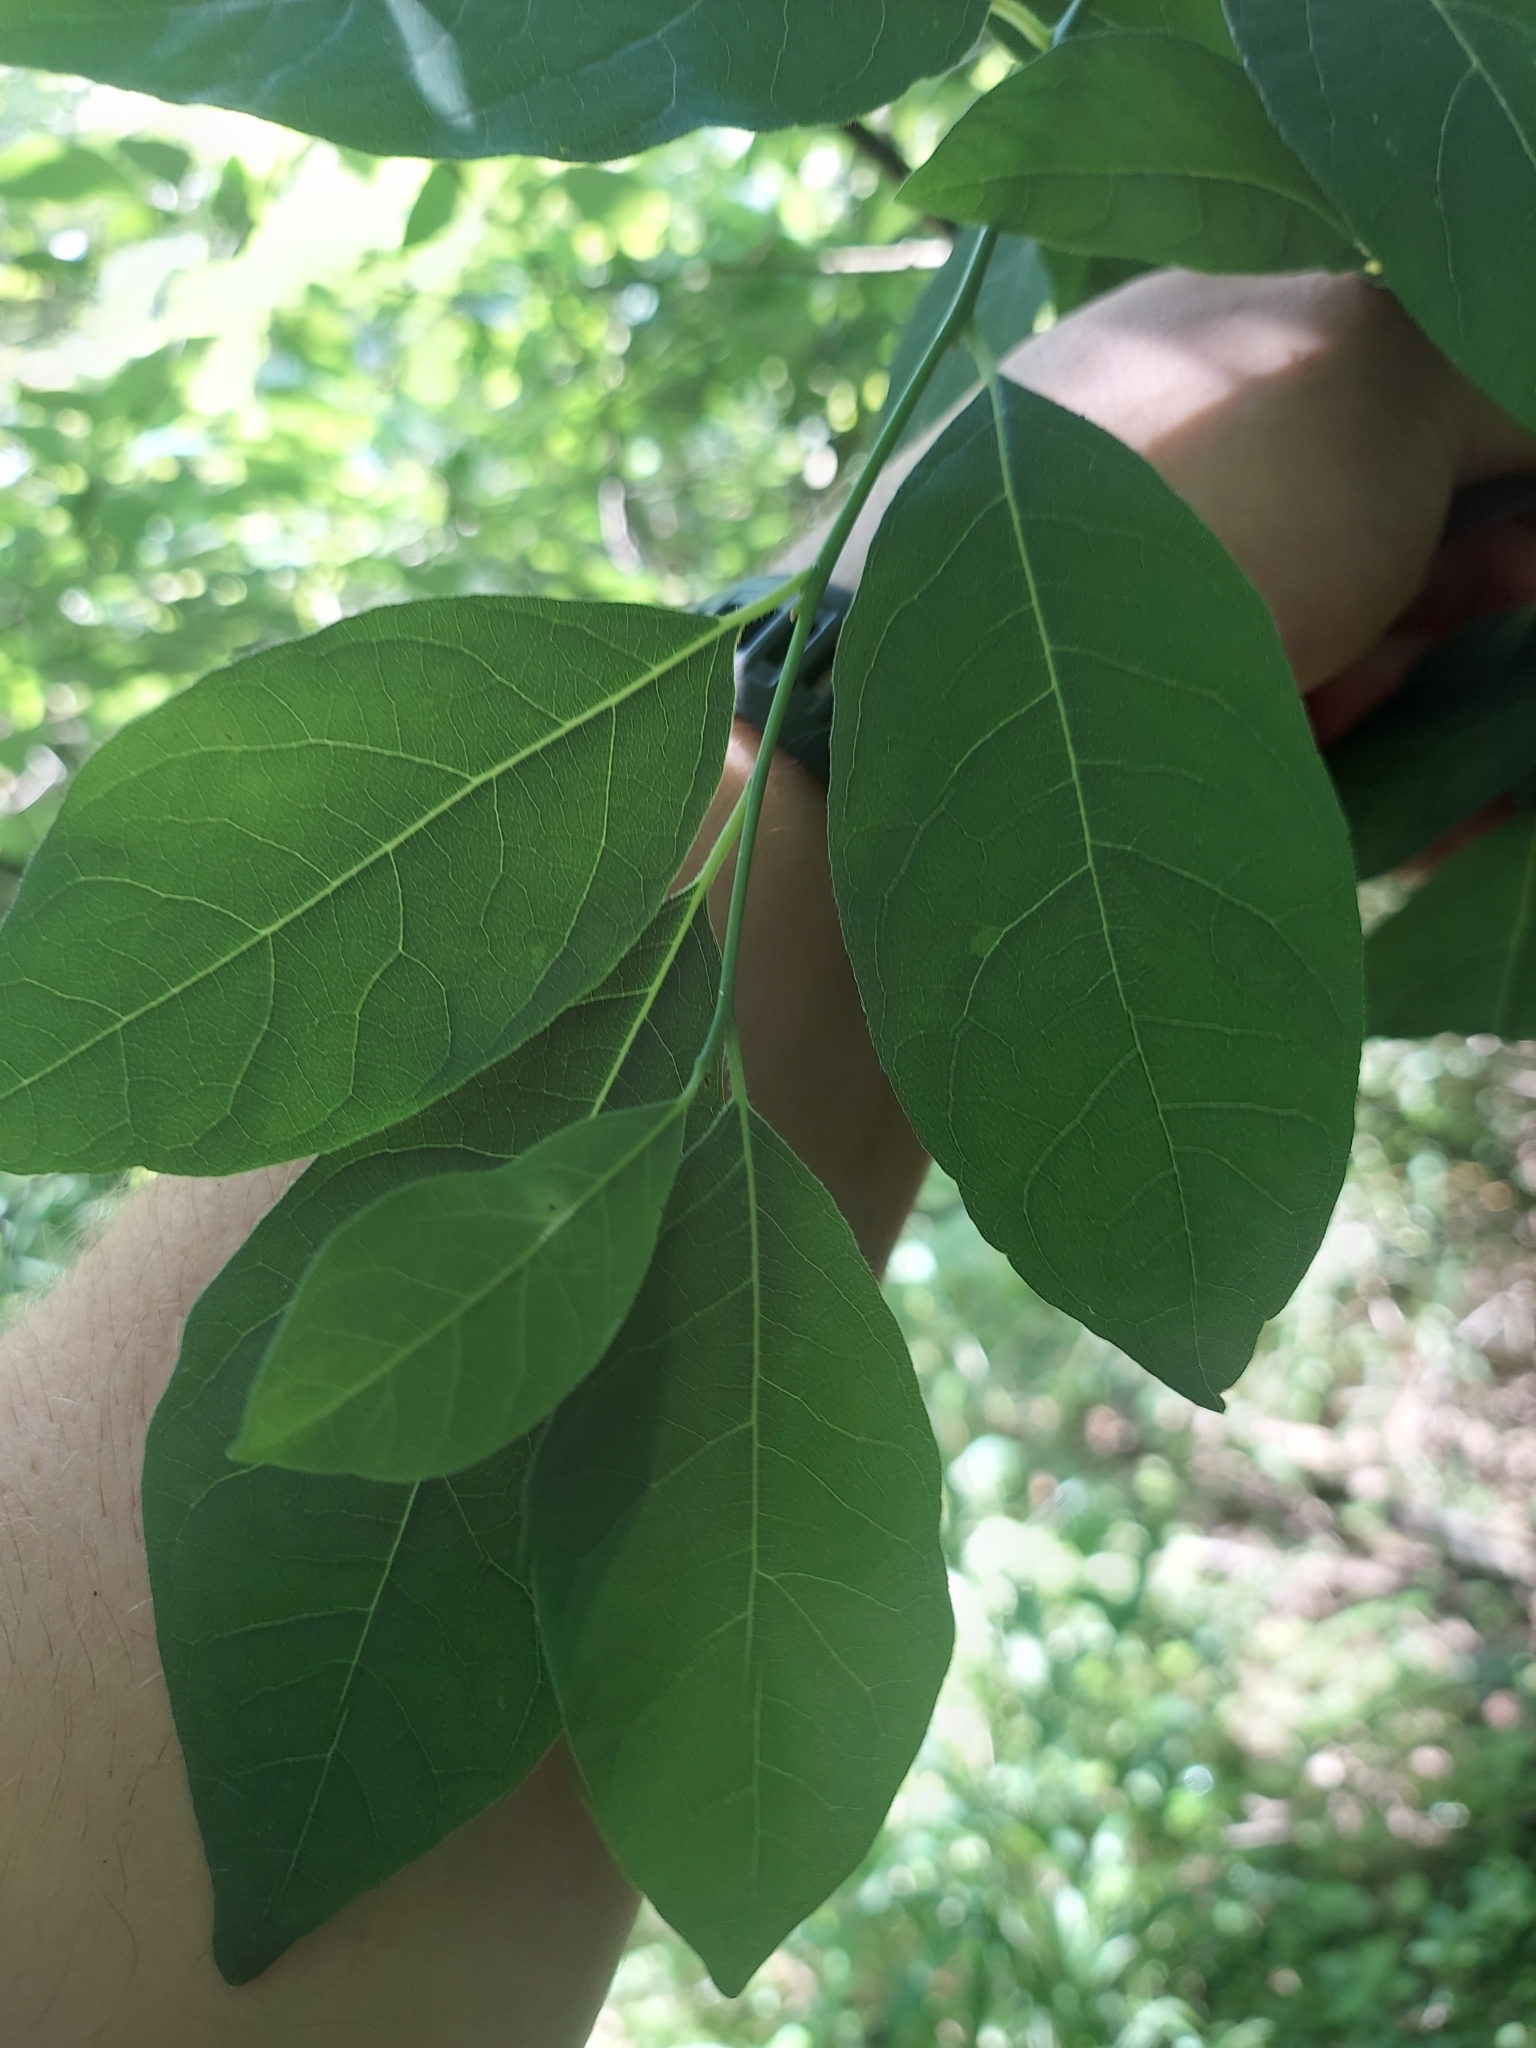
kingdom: Plantae
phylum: Tracheophyta
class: Magnoliopsida
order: Laurales
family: Lauraceae
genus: Lindera
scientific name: Lindera benzoin
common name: Spicebush
